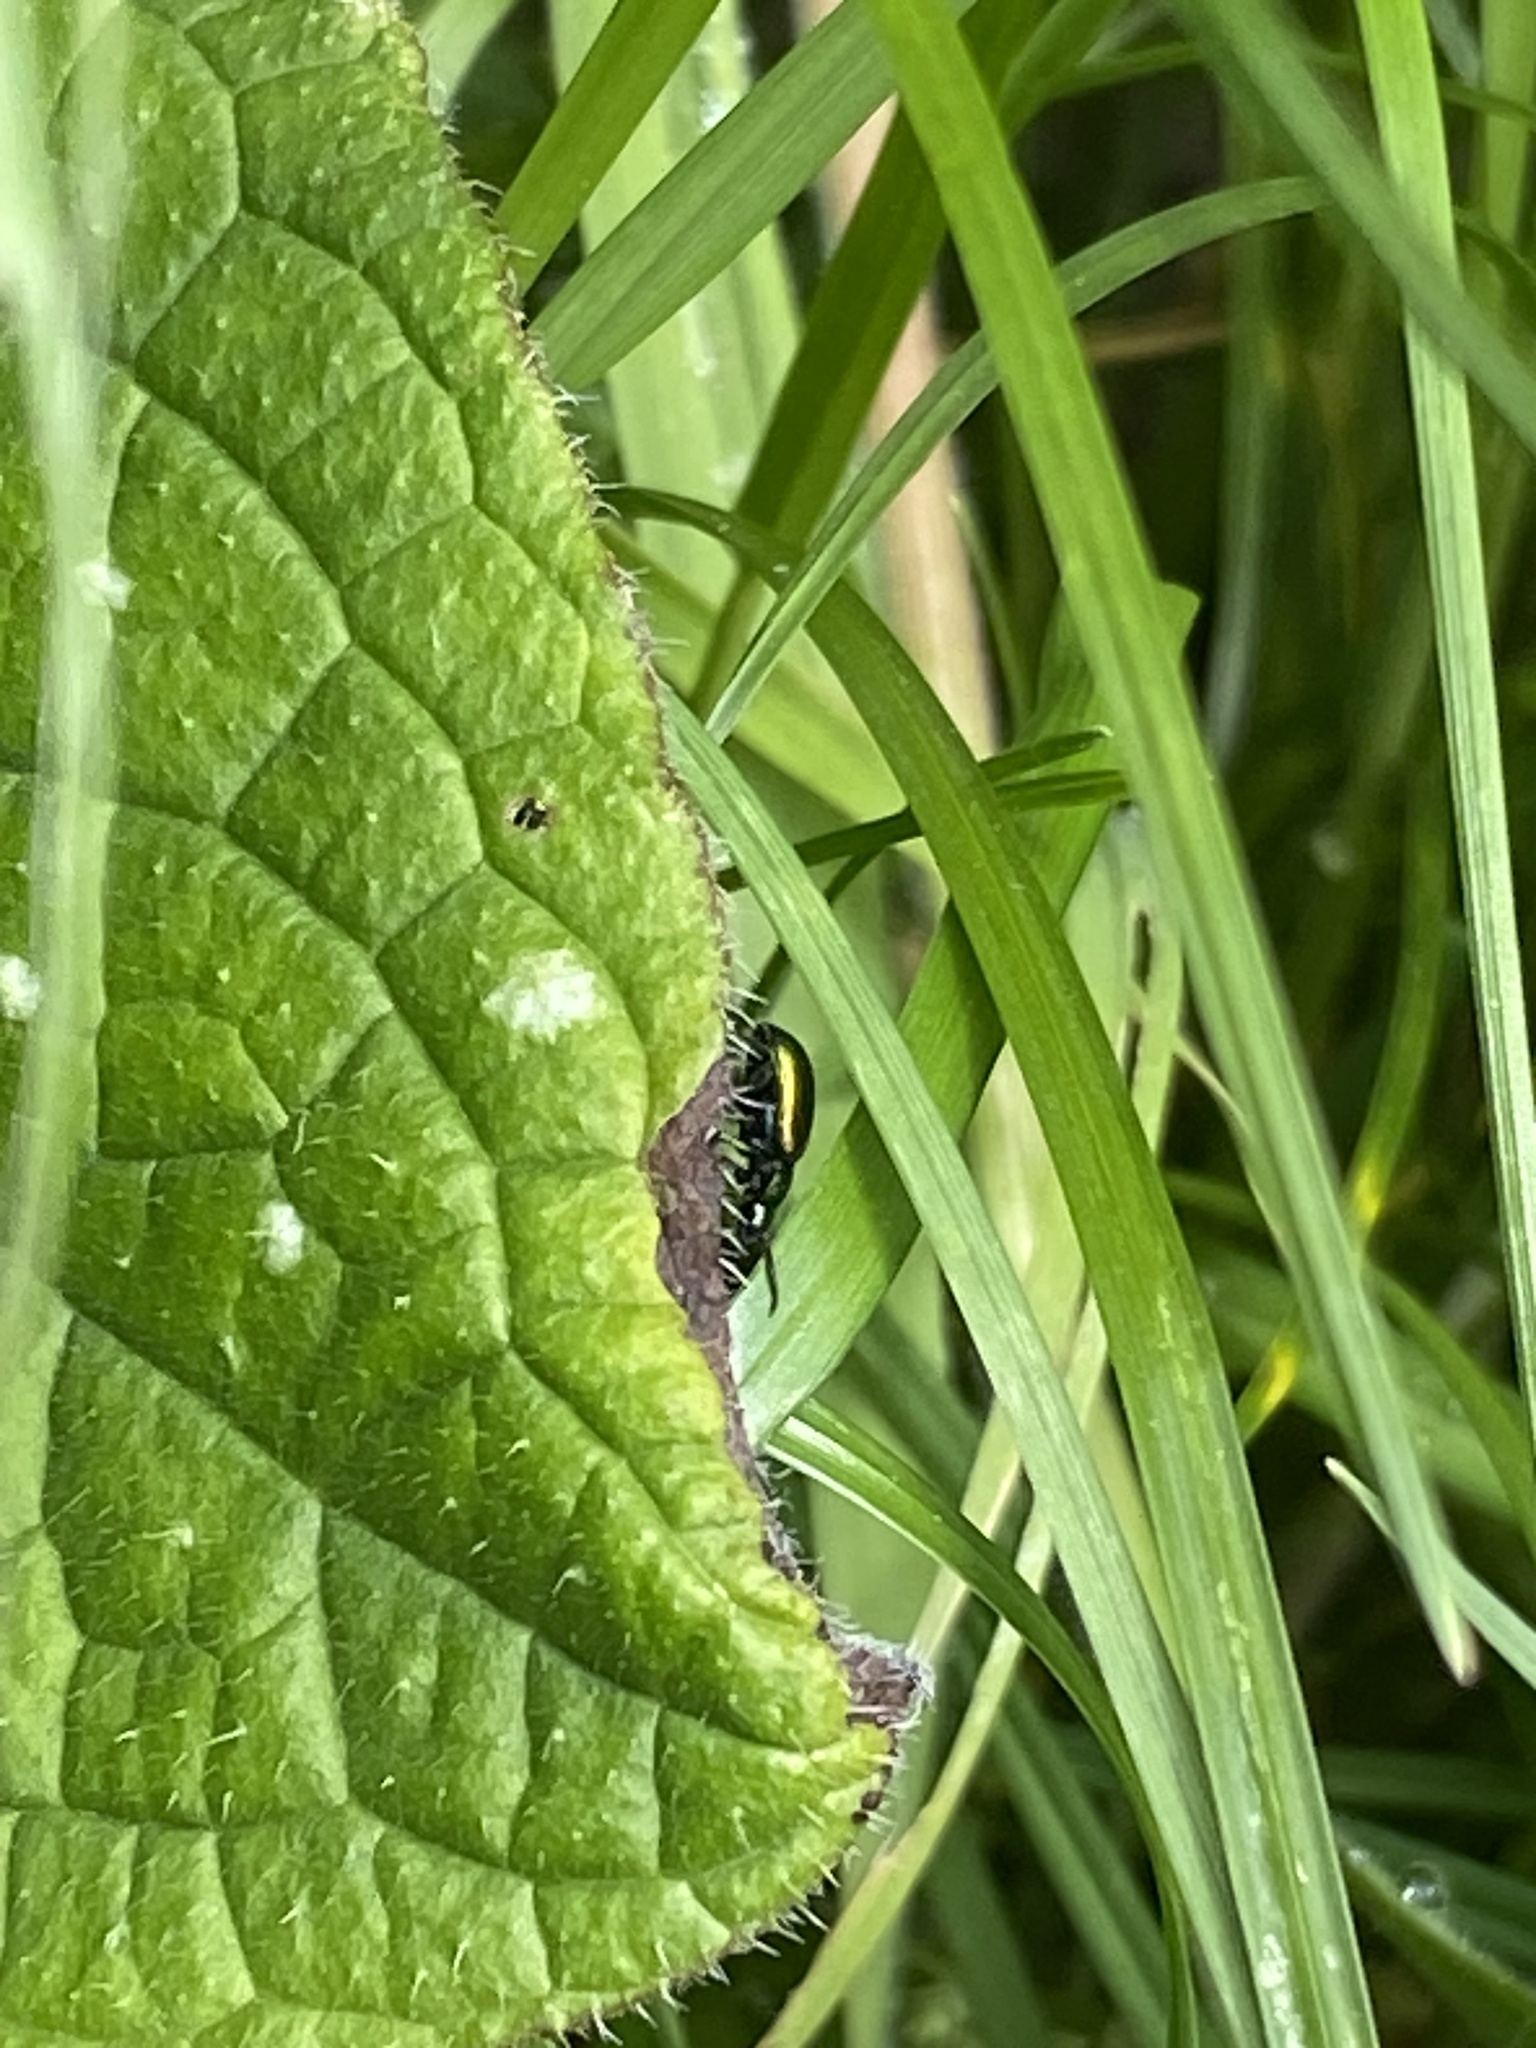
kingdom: Animalia
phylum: Arthropoda
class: Insecta
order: Coleoptera
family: Chrysomelidae
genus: Gastrophysa
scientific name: Gastrophysa viridula
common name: Green dock beetle
